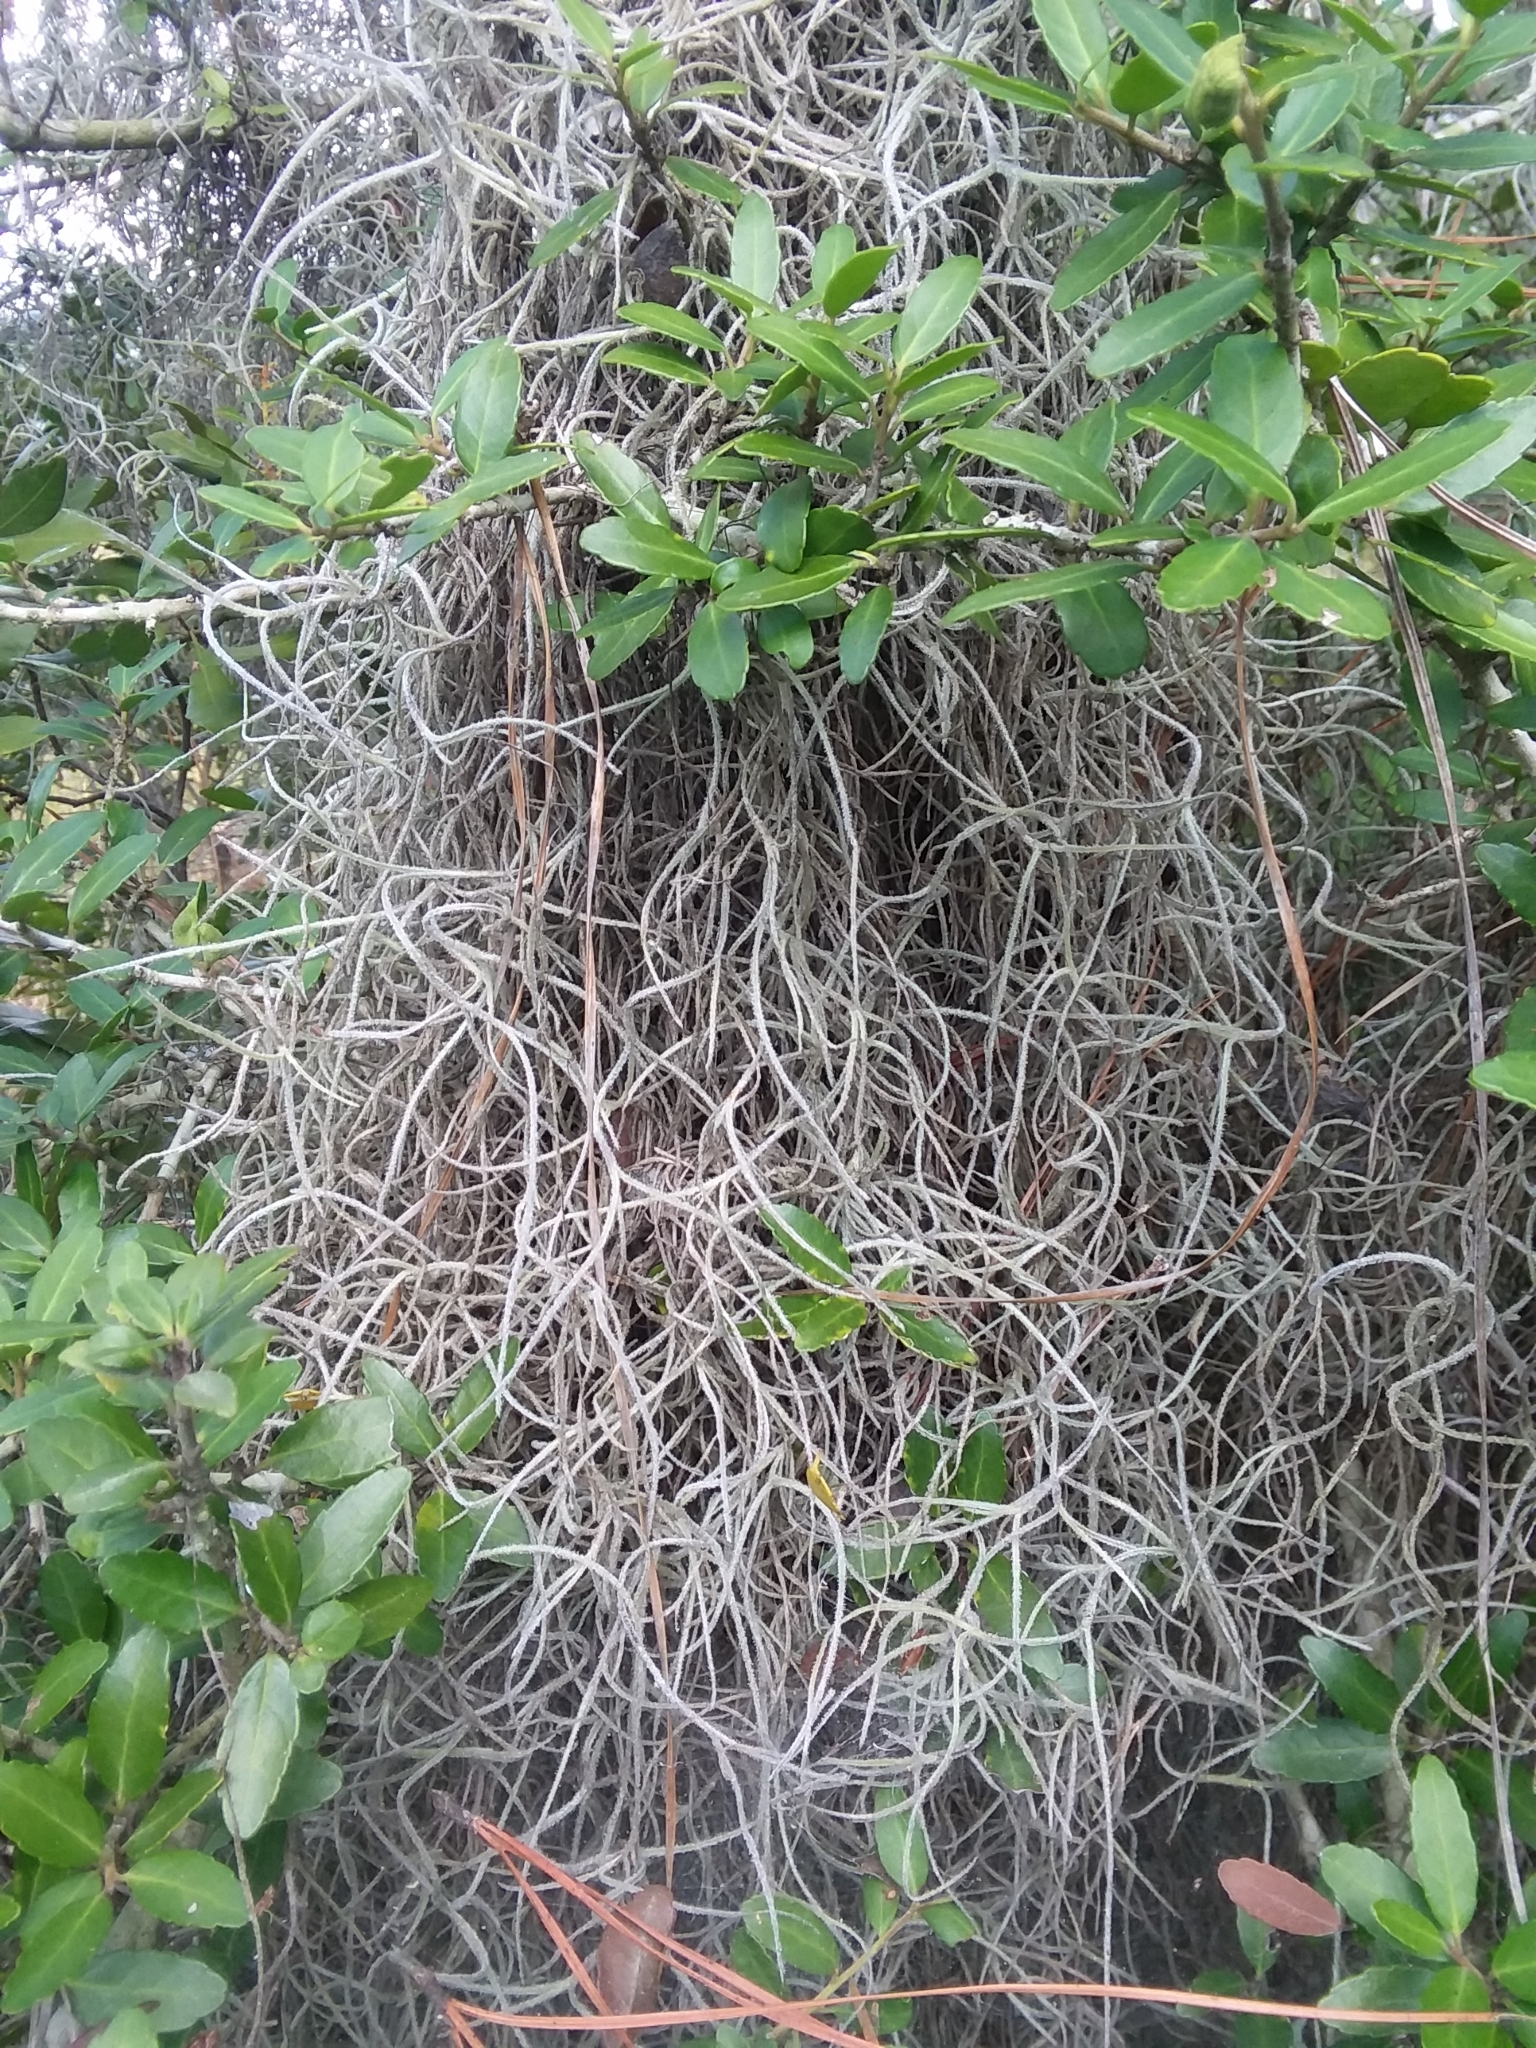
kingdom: Plantae
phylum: Tracheophyta
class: Liliopsida
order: Poales
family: Bromeliaceae
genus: Tillandsia
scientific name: Tillandsia usneoides
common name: Spanish moss
